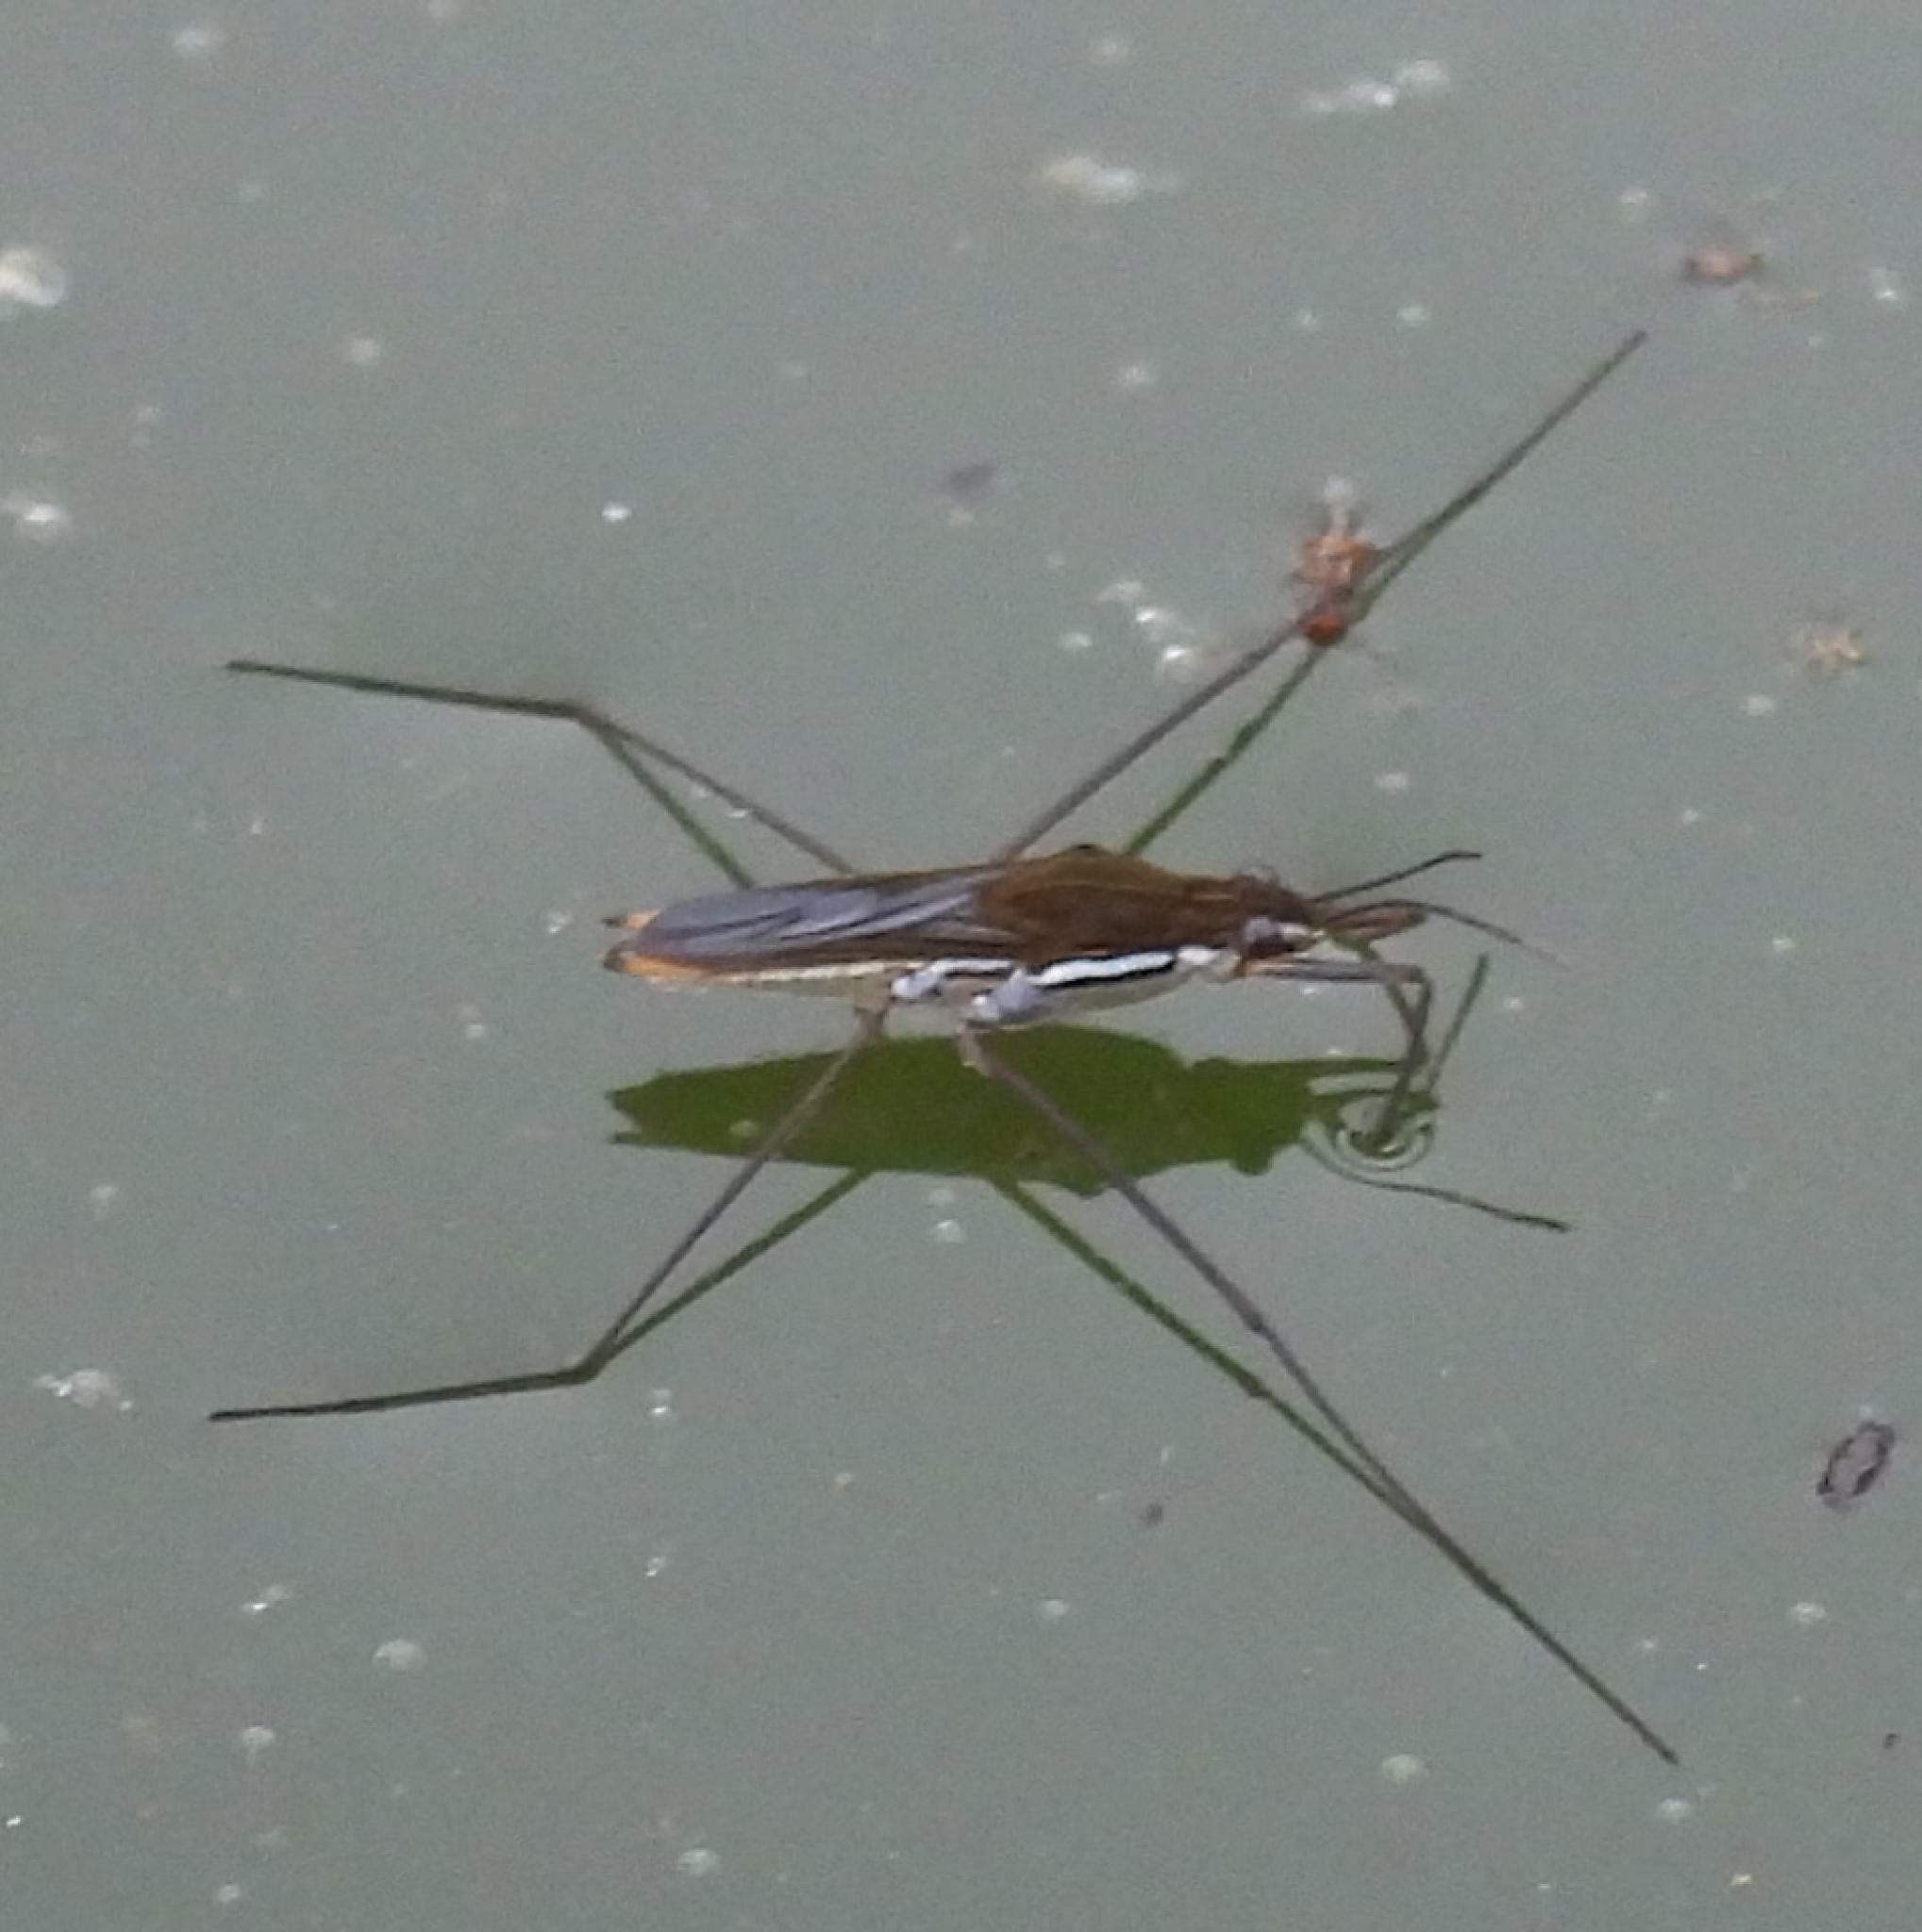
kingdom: Animalia
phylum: Arthropoda
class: Insecta
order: Hemiptera
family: Gerridae
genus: Gerris
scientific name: Gerris swakopensis
